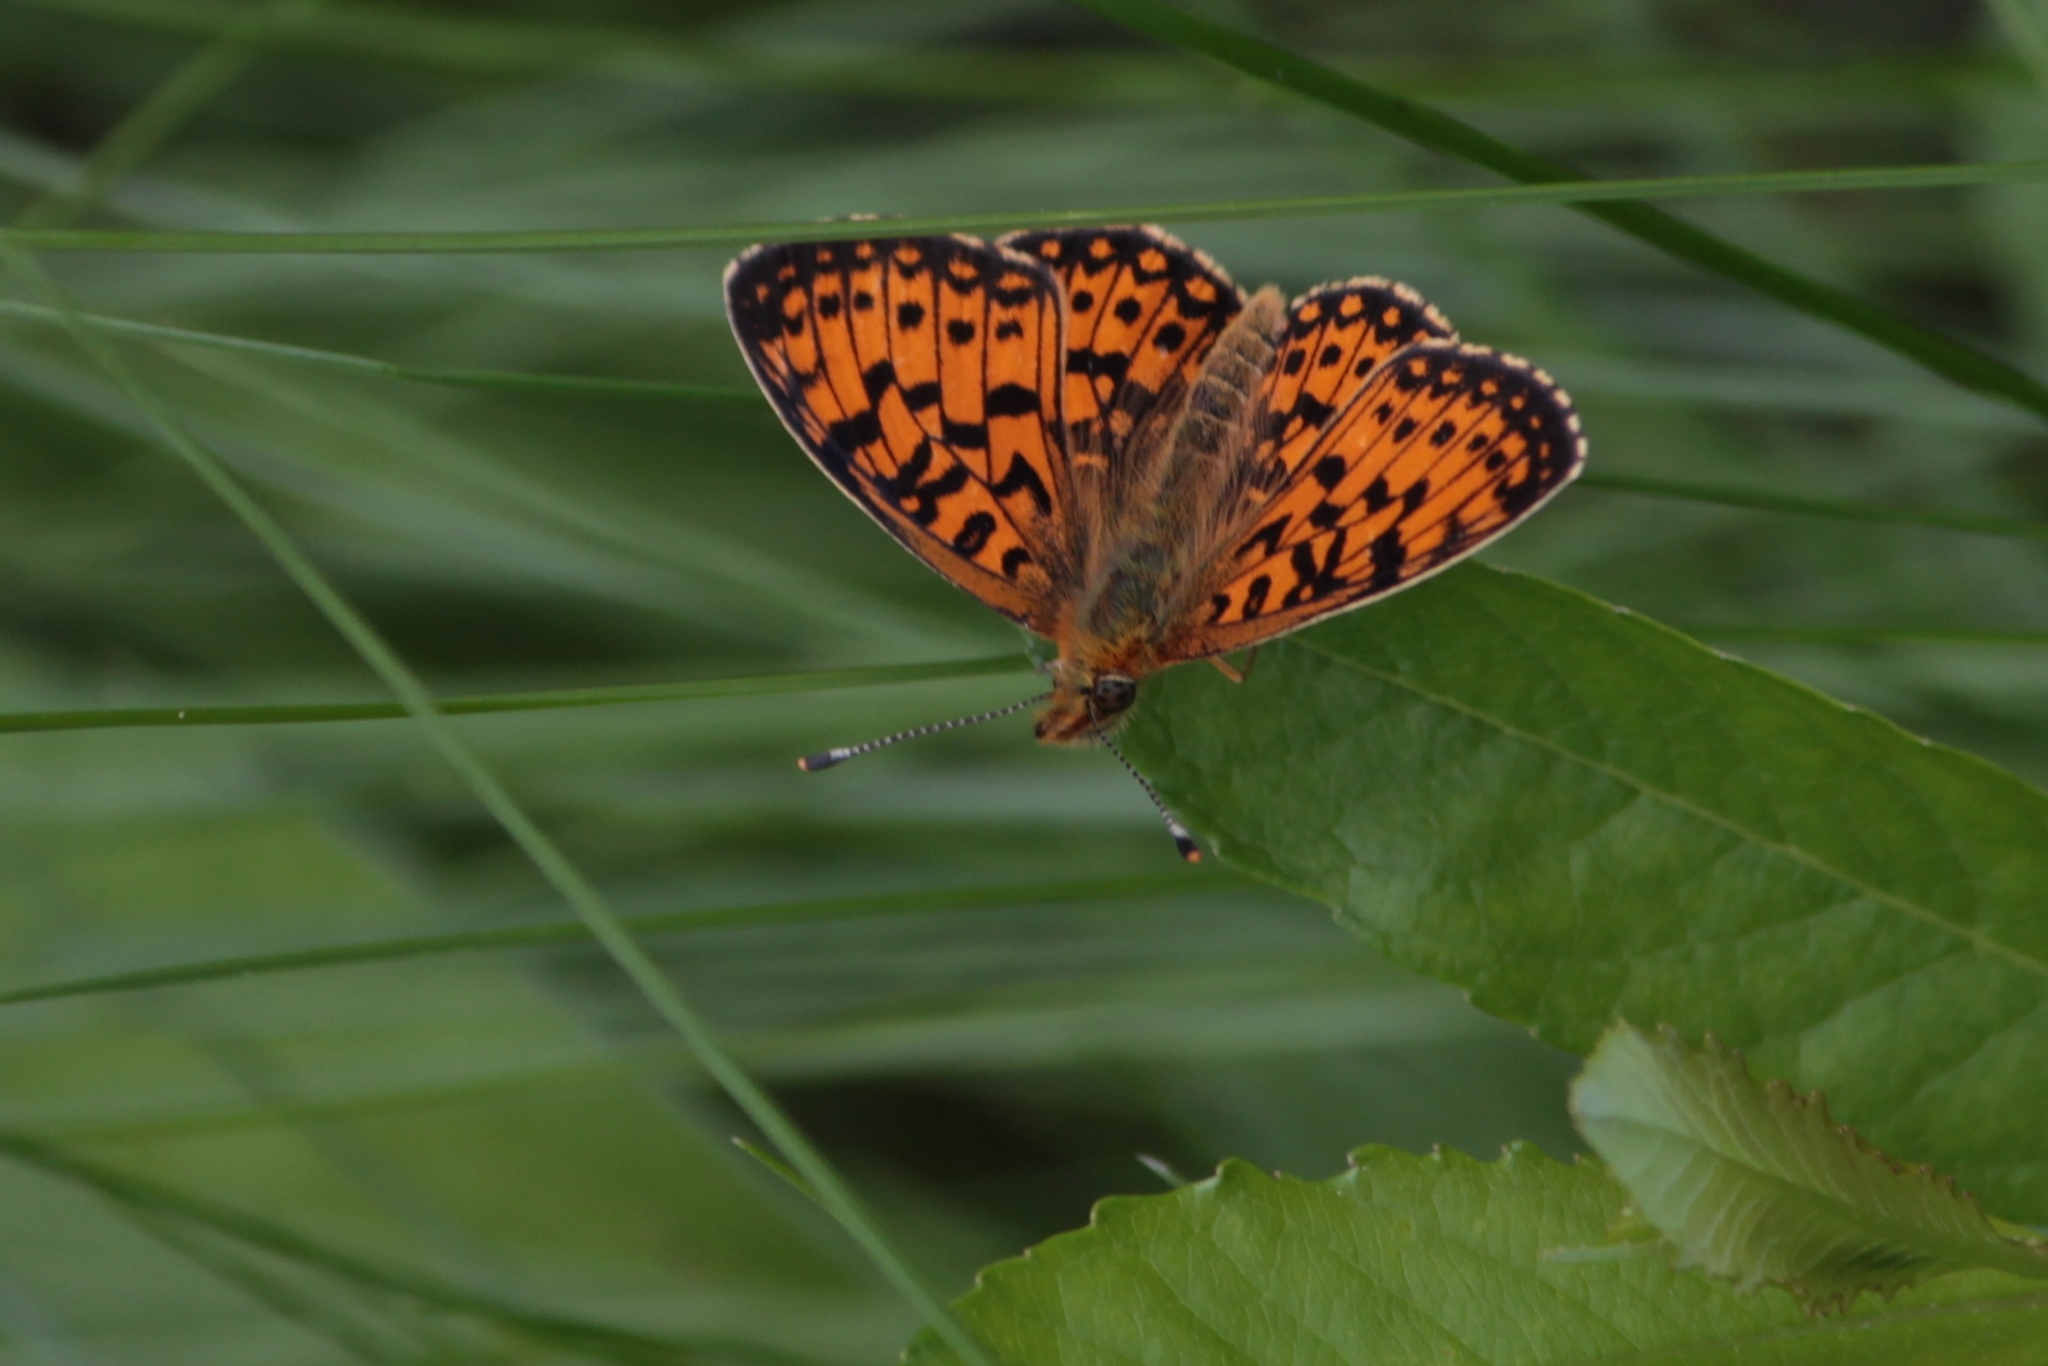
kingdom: Animalia
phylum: Arthropoda
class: Insecta
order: Lepidoptera
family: Nymphalidae
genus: Boloria
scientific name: Boloria selene
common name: Small pearl-bordered fritillary
